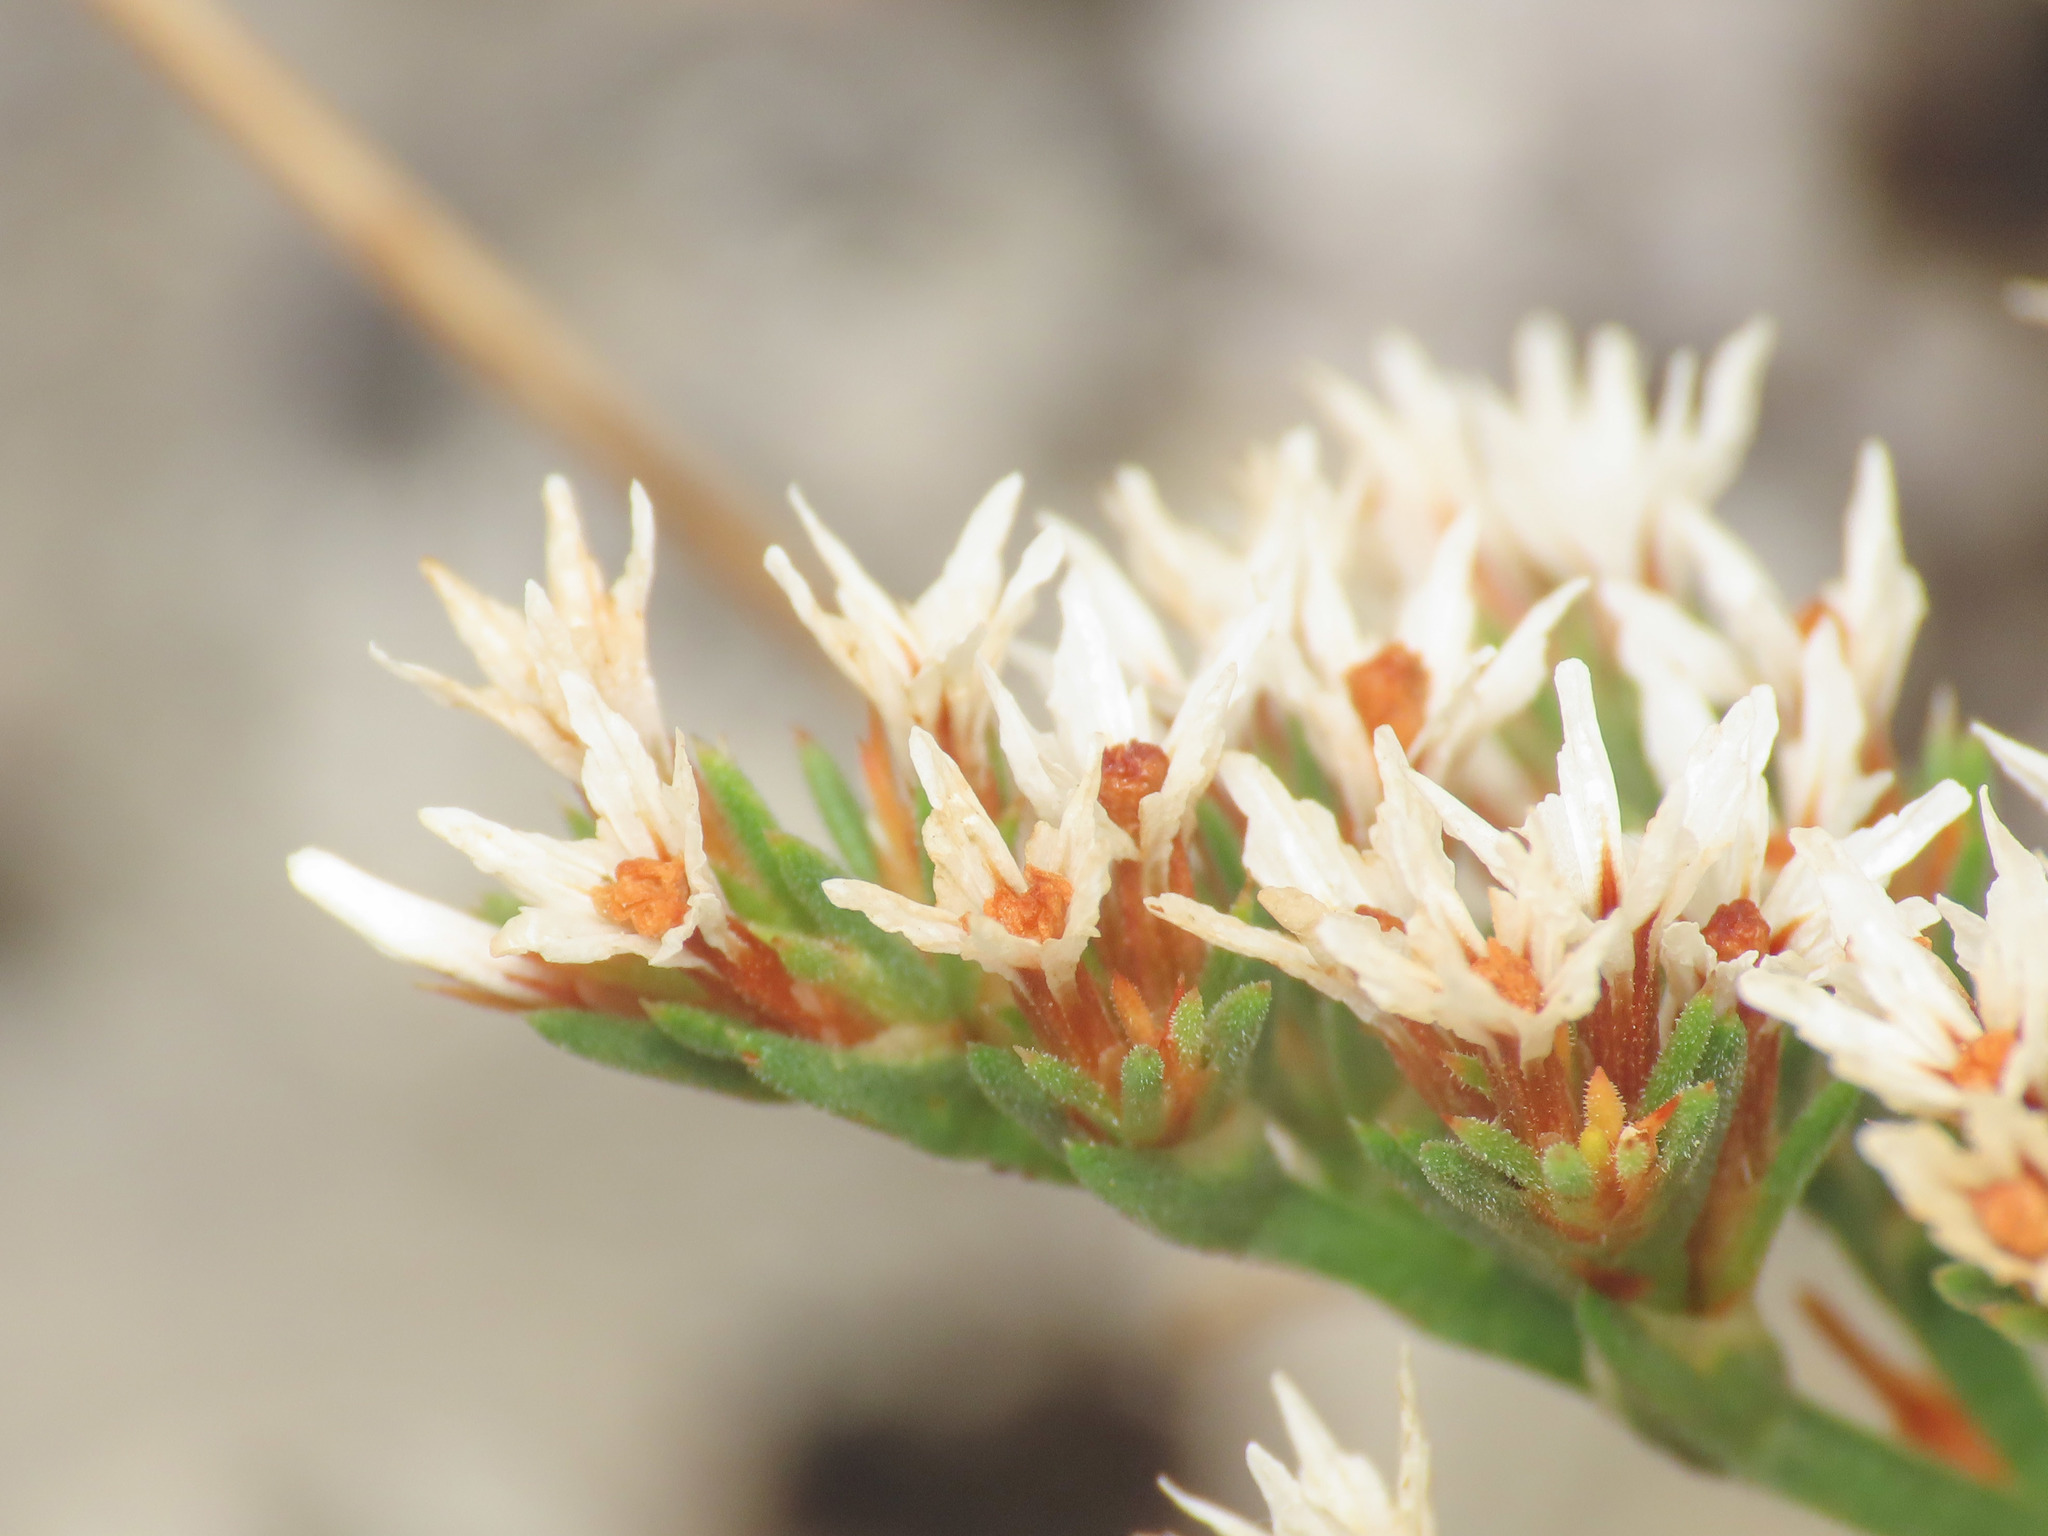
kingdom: Plantae
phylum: Tracheophyta
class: Magnoliopsida
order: Caryophyllales
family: Plumbaginaceae
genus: Goniolimon
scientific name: Goniolimon tataricum
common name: Statice
